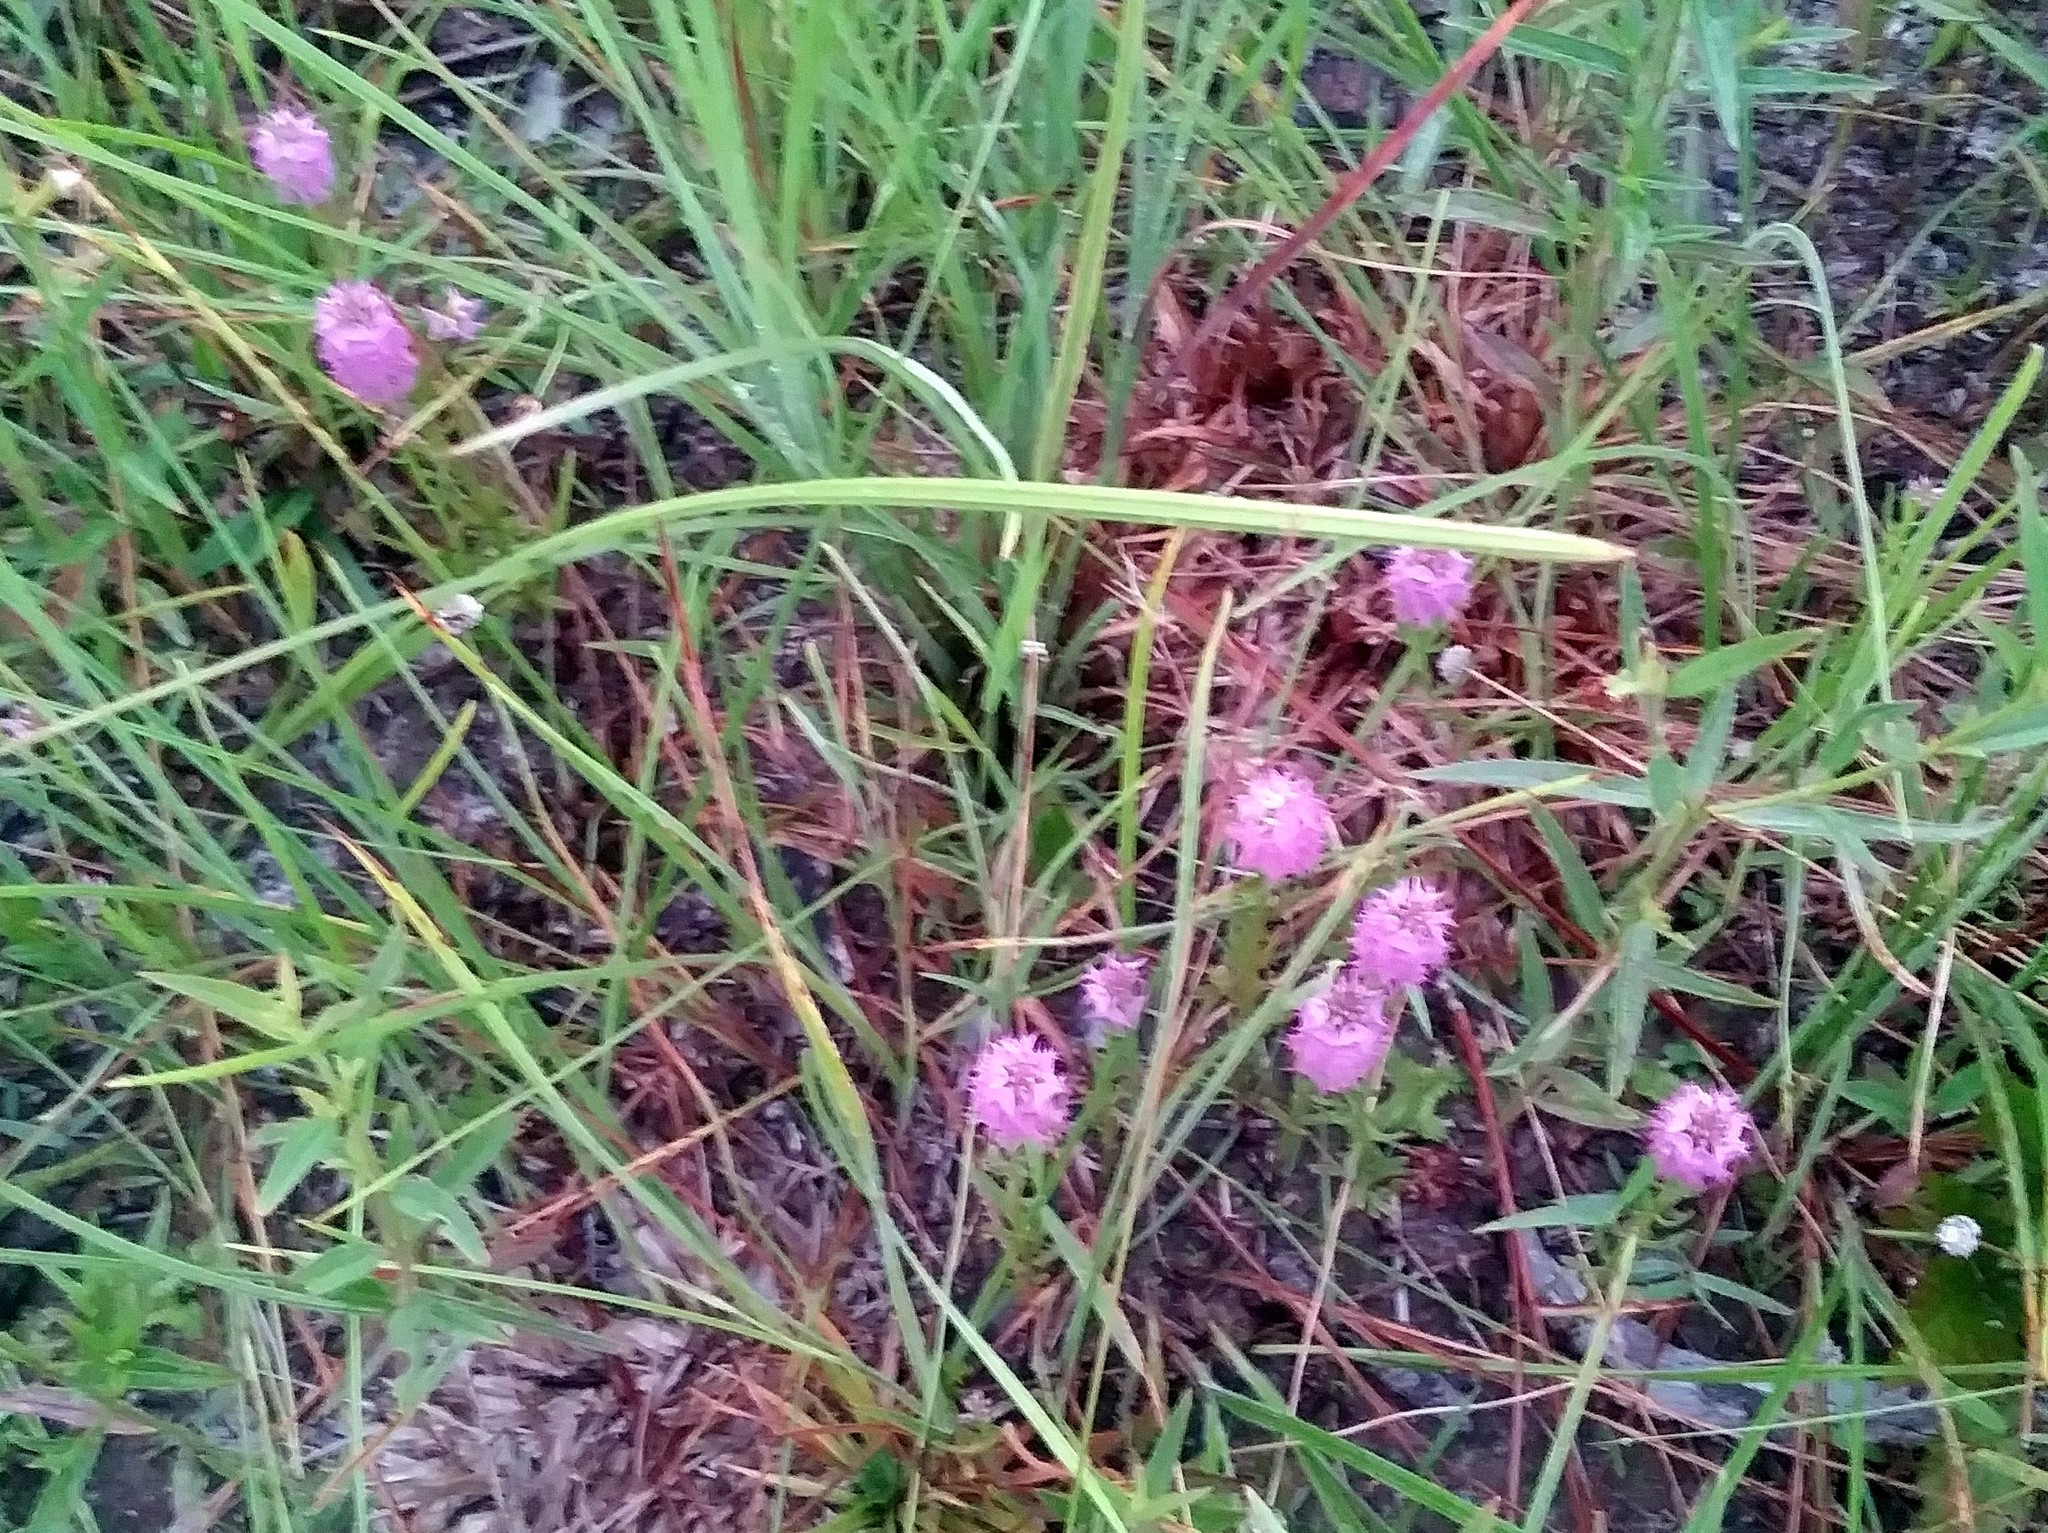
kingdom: Plantae
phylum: Tracheophyta
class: Magnoliopsida
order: Fabales
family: Polygalaceae
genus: Polygala
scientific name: Polygala cruciata
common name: Drumheads
